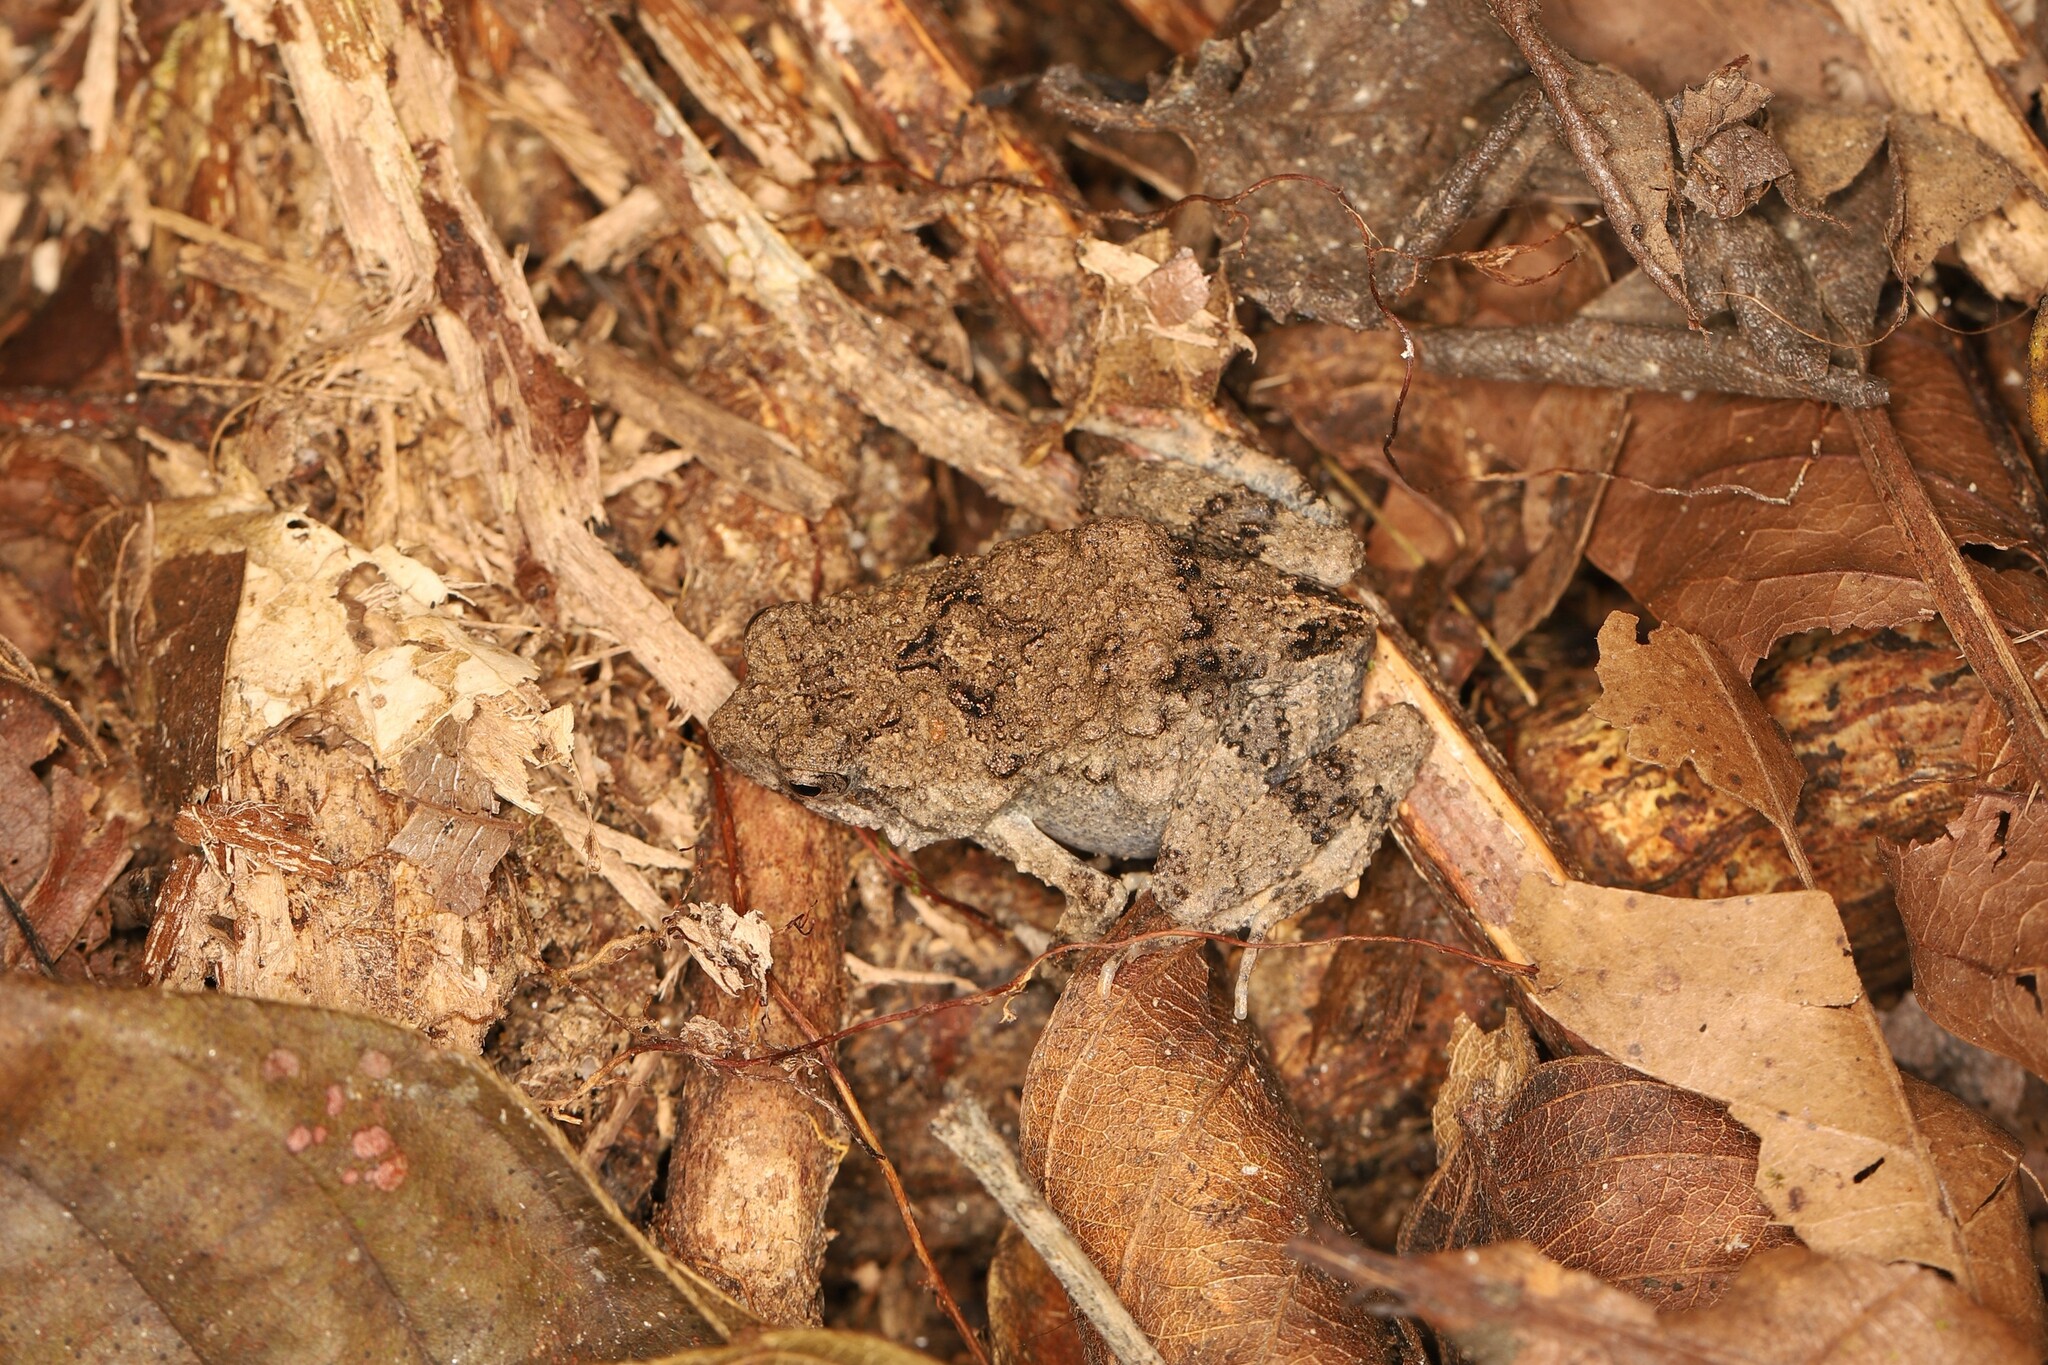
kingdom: Animalia
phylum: Chordata
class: Amphibia
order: Anura
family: Leptodactylidae
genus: Engystomops
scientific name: Engystomops pustulosus
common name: Tungara frog
